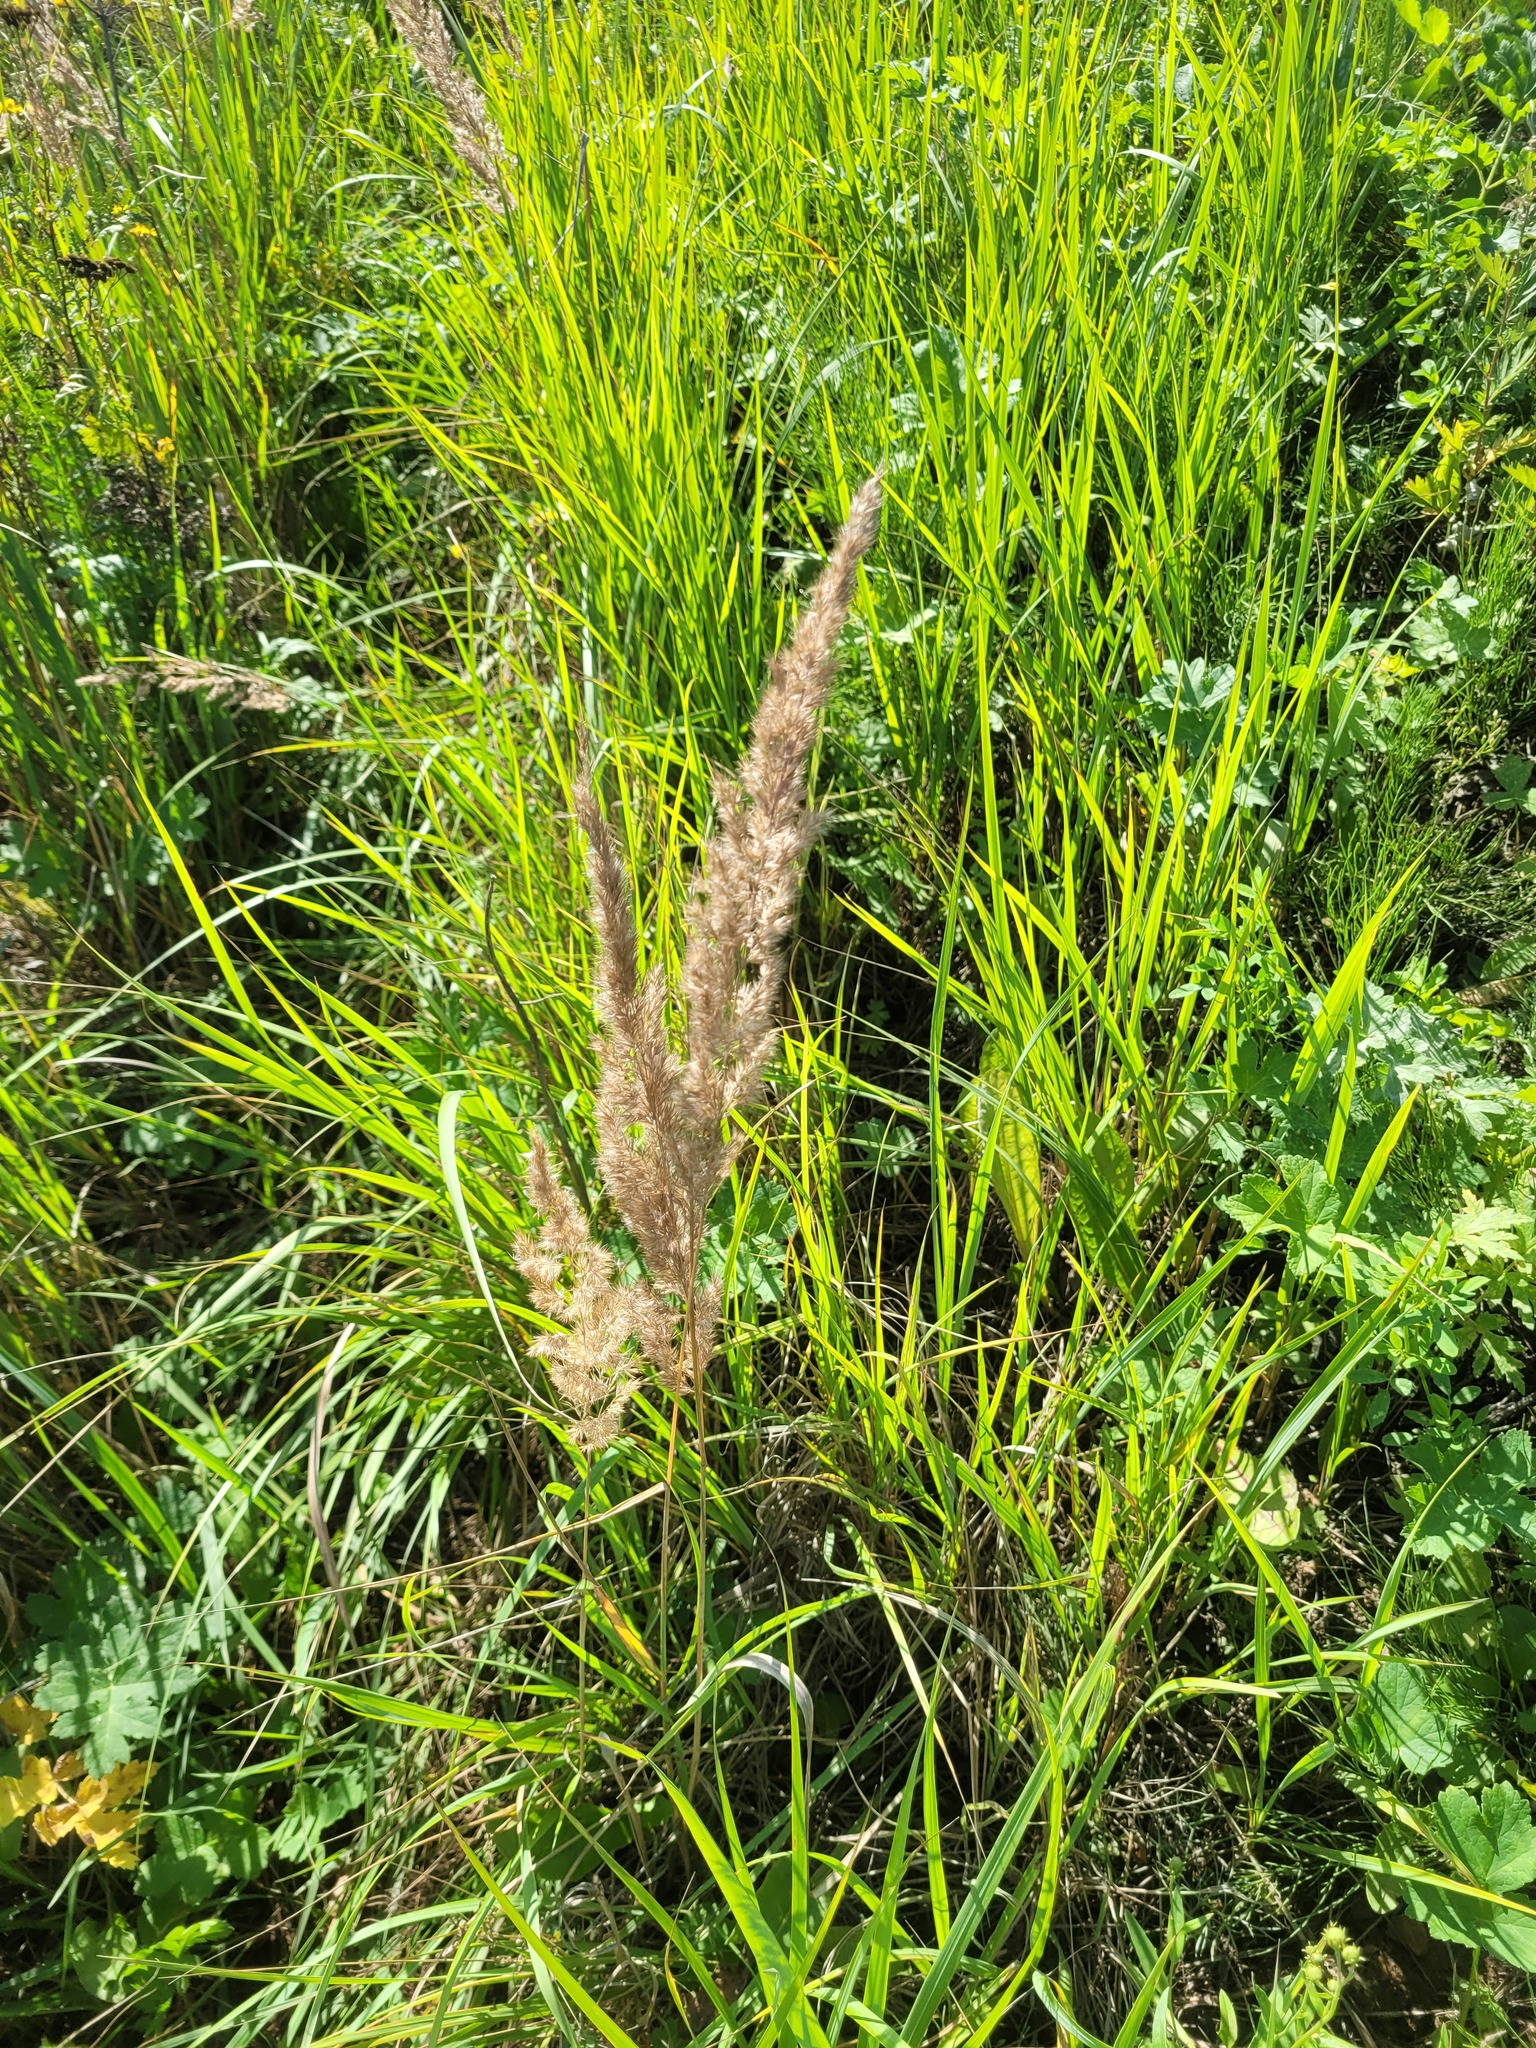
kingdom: Plantae
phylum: Tracheophyta
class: Liliopsida
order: Poales
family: Poaceae
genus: Calamagrostis
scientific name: Calamagrostis epigejos
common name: Wood small-reed
